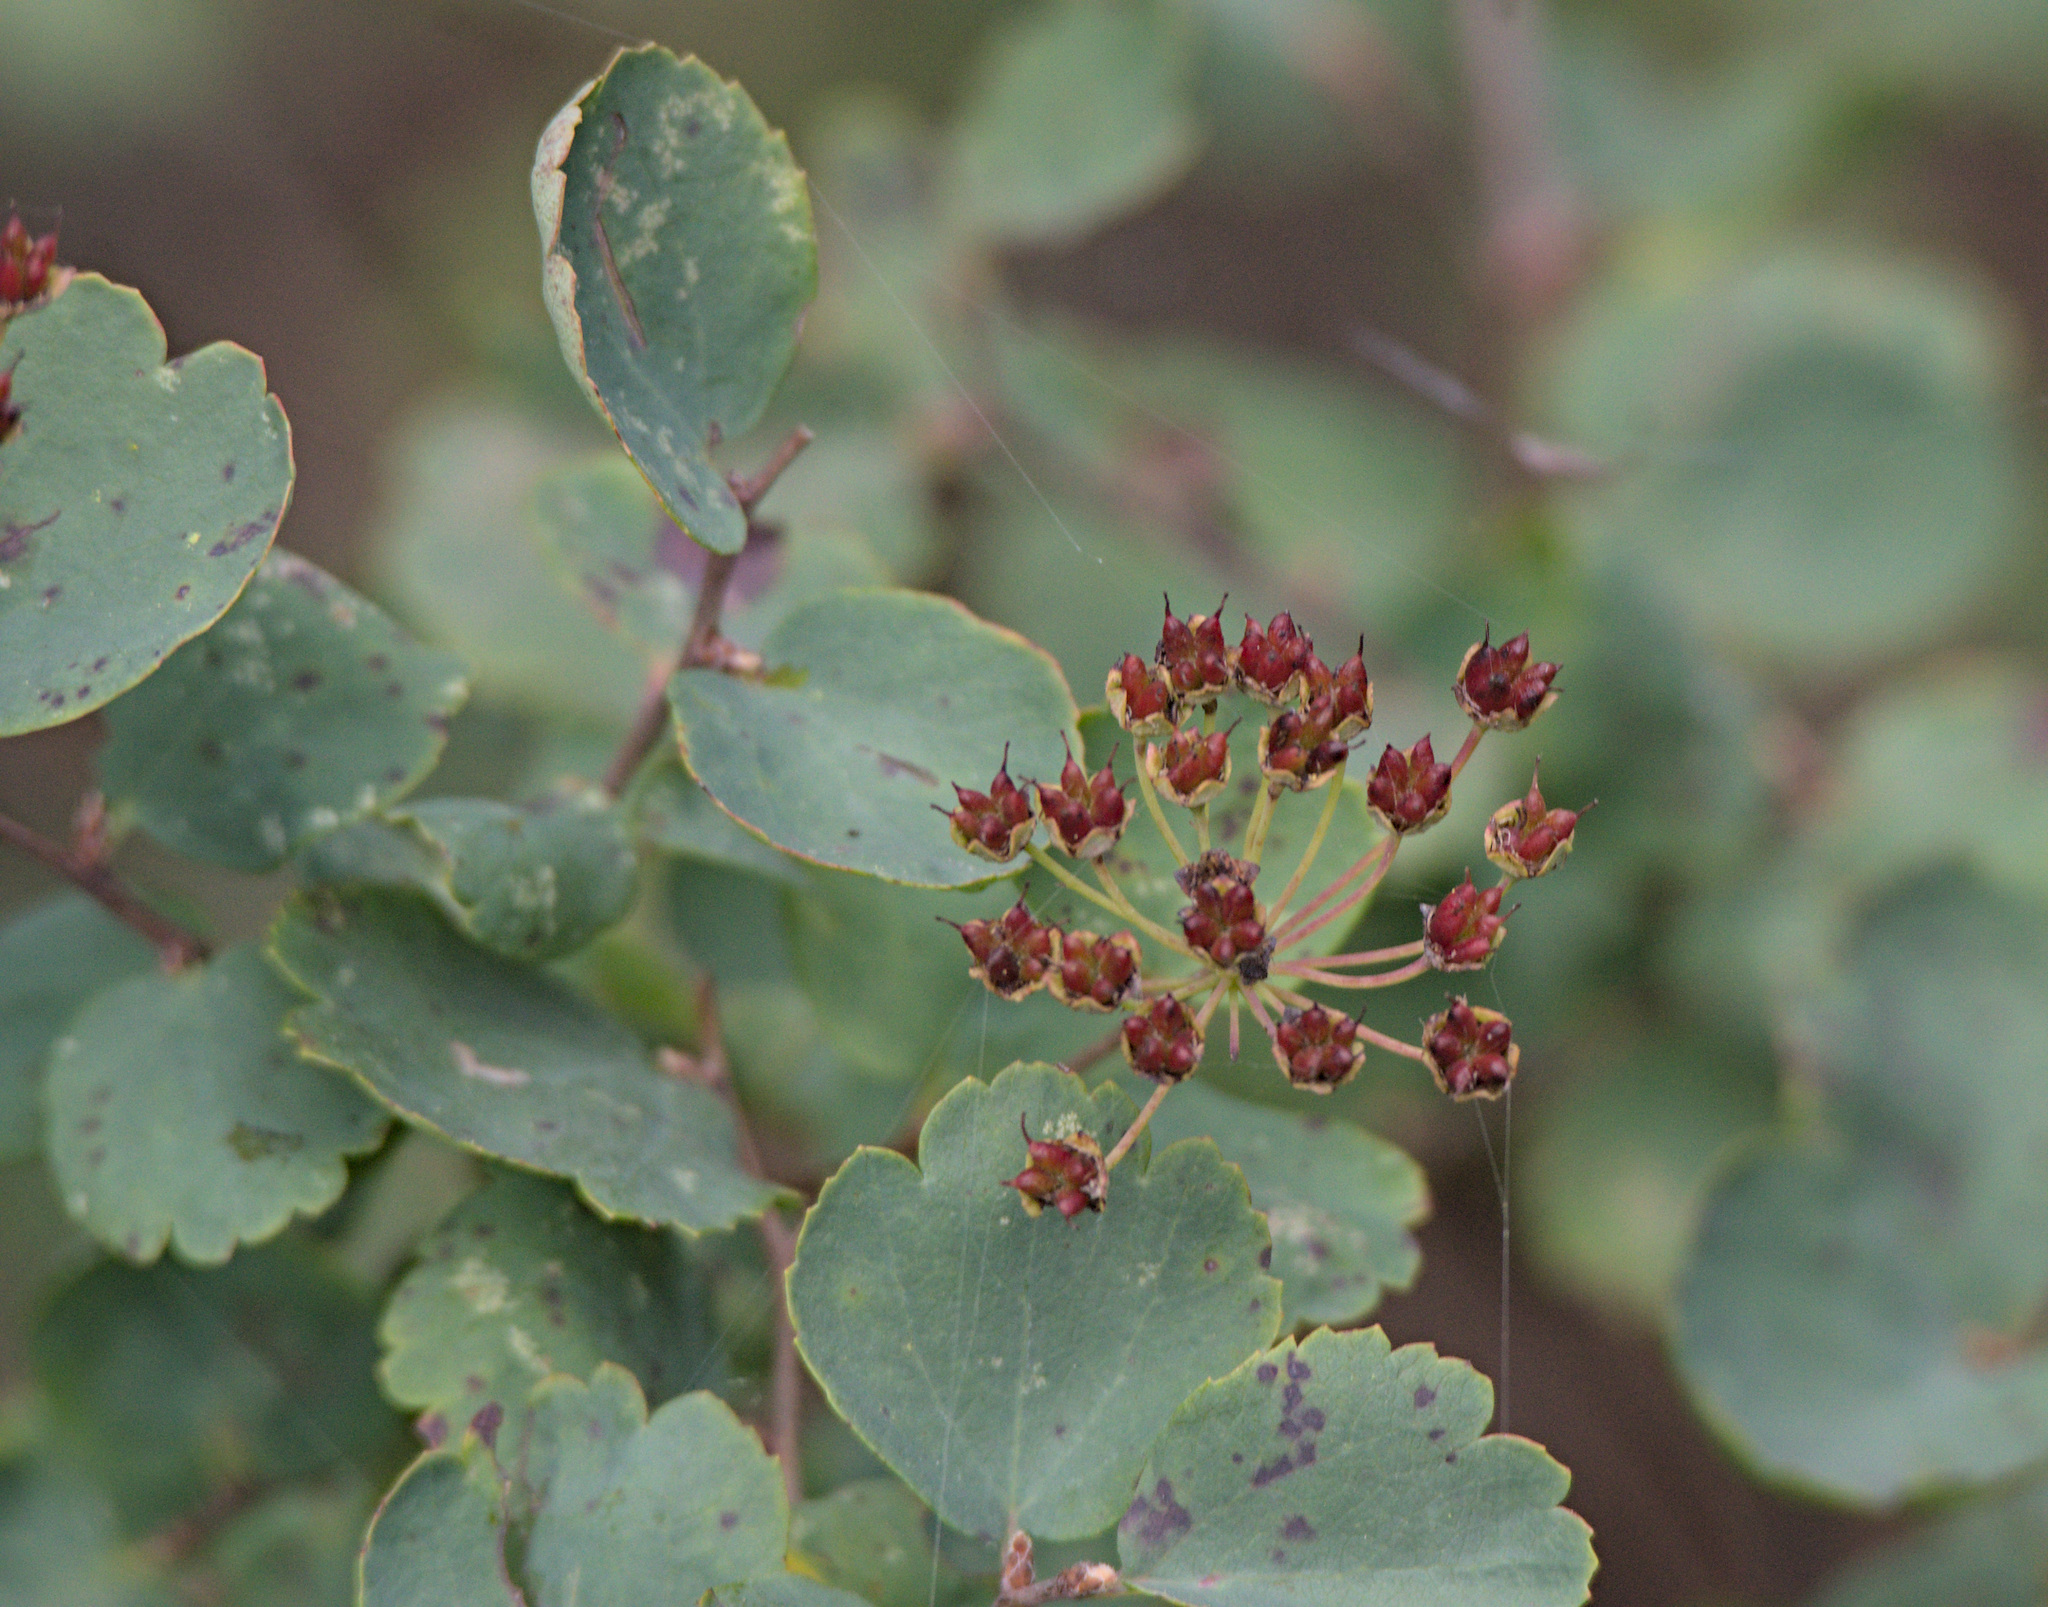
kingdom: Plantae
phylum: Tracheophyta
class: Magnoliopsida
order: Rosales
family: Rosaceae
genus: Spiraea
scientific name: Spiraea trilobata
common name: Asian meadowsweet
